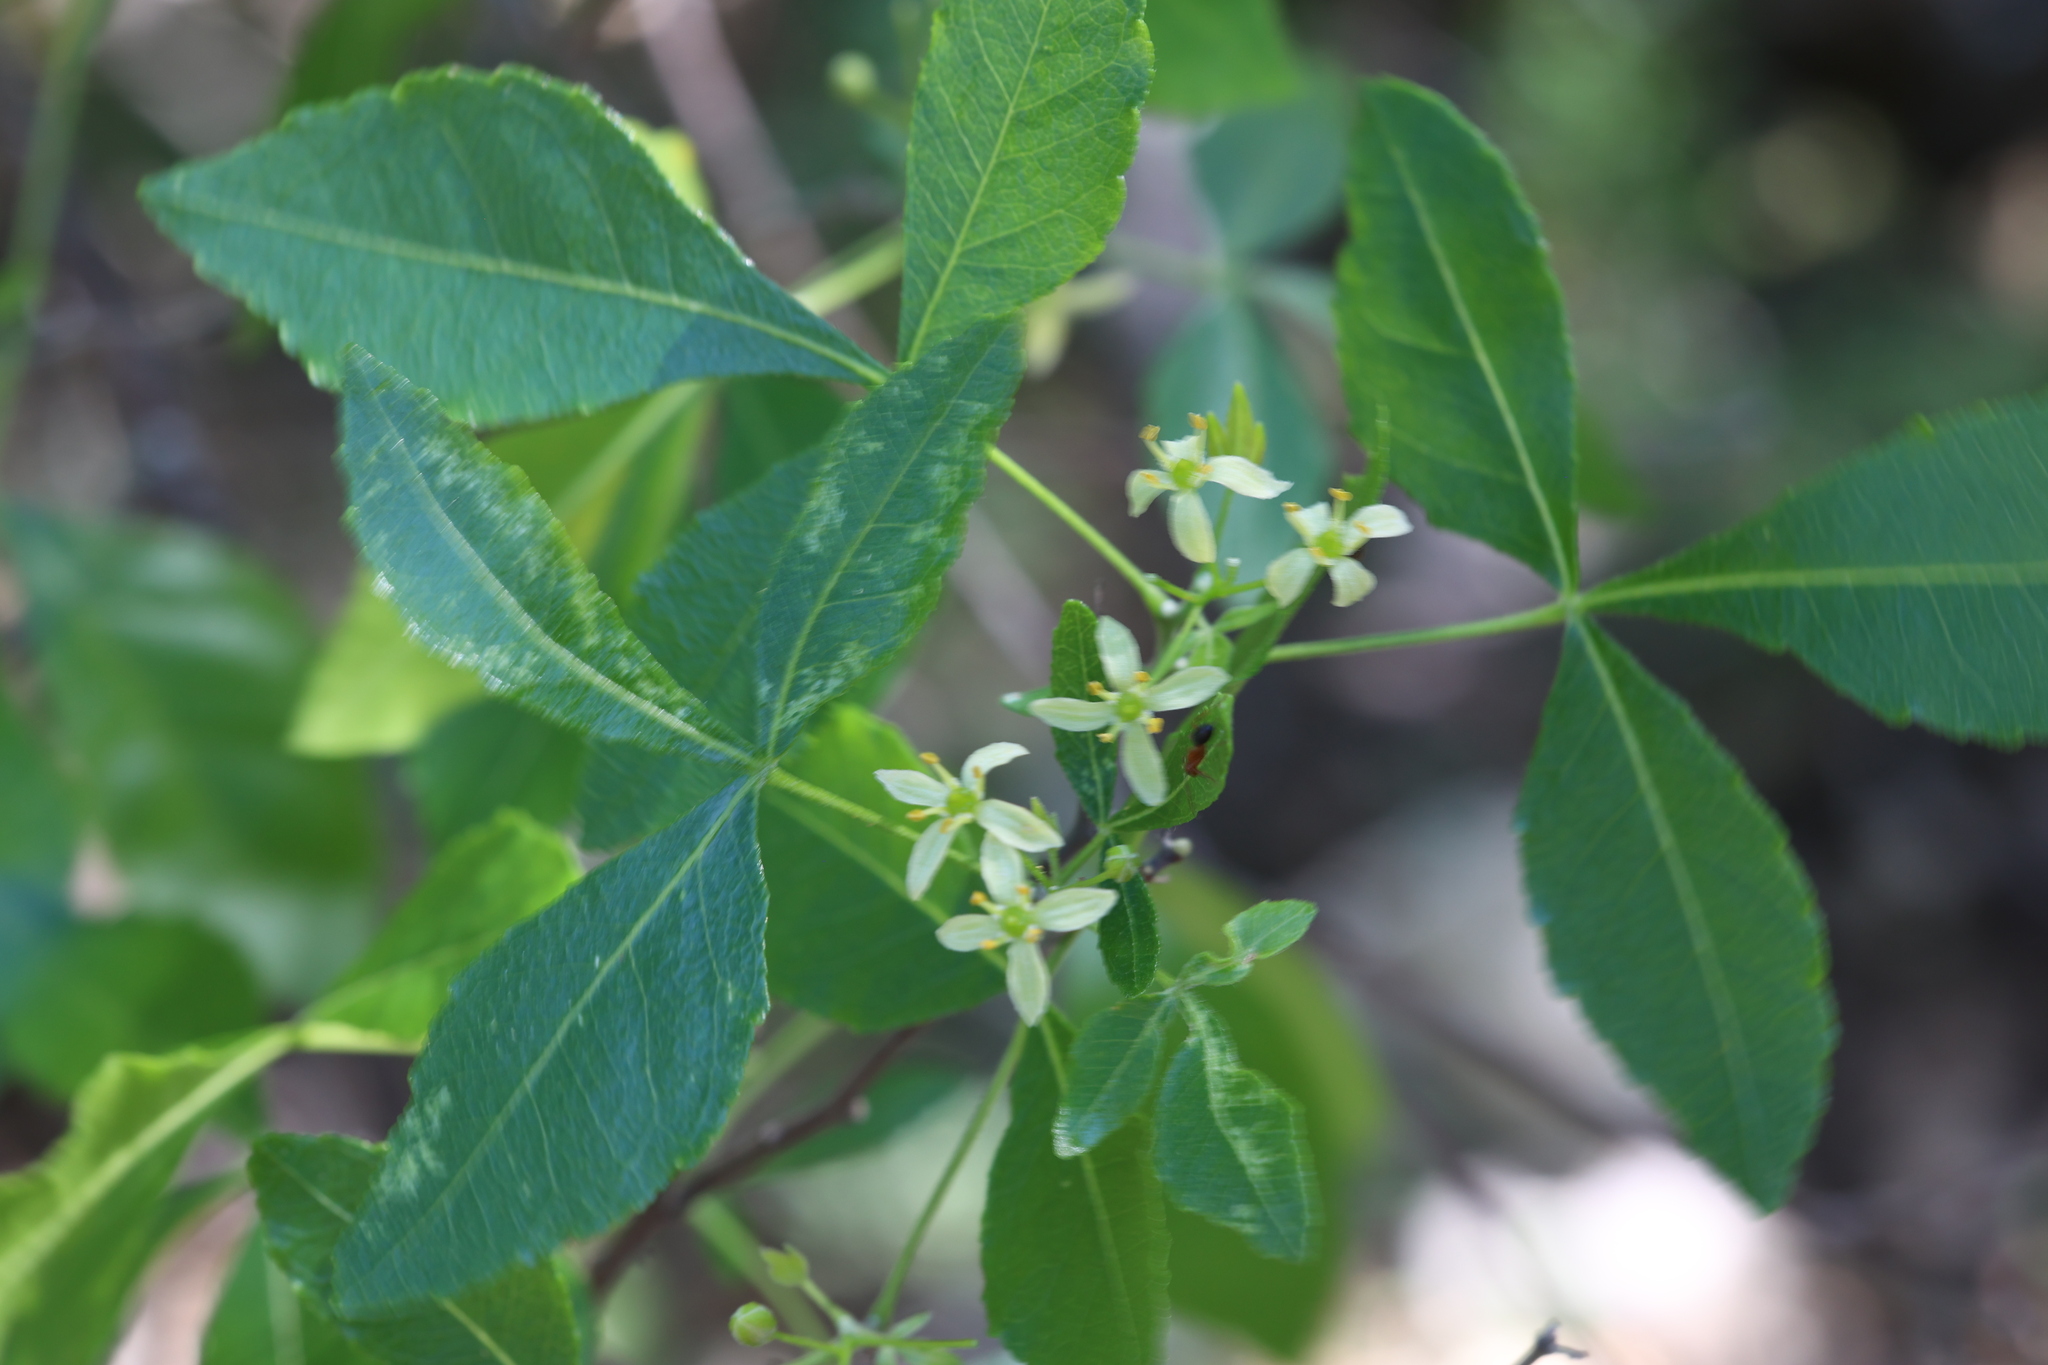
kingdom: Plantae
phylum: Tracheophyta
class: Magnoliopsida
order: Sapindales
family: Rutaceae
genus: Ptelea
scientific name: Ptelea trifoliata
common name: Common hop-tree
